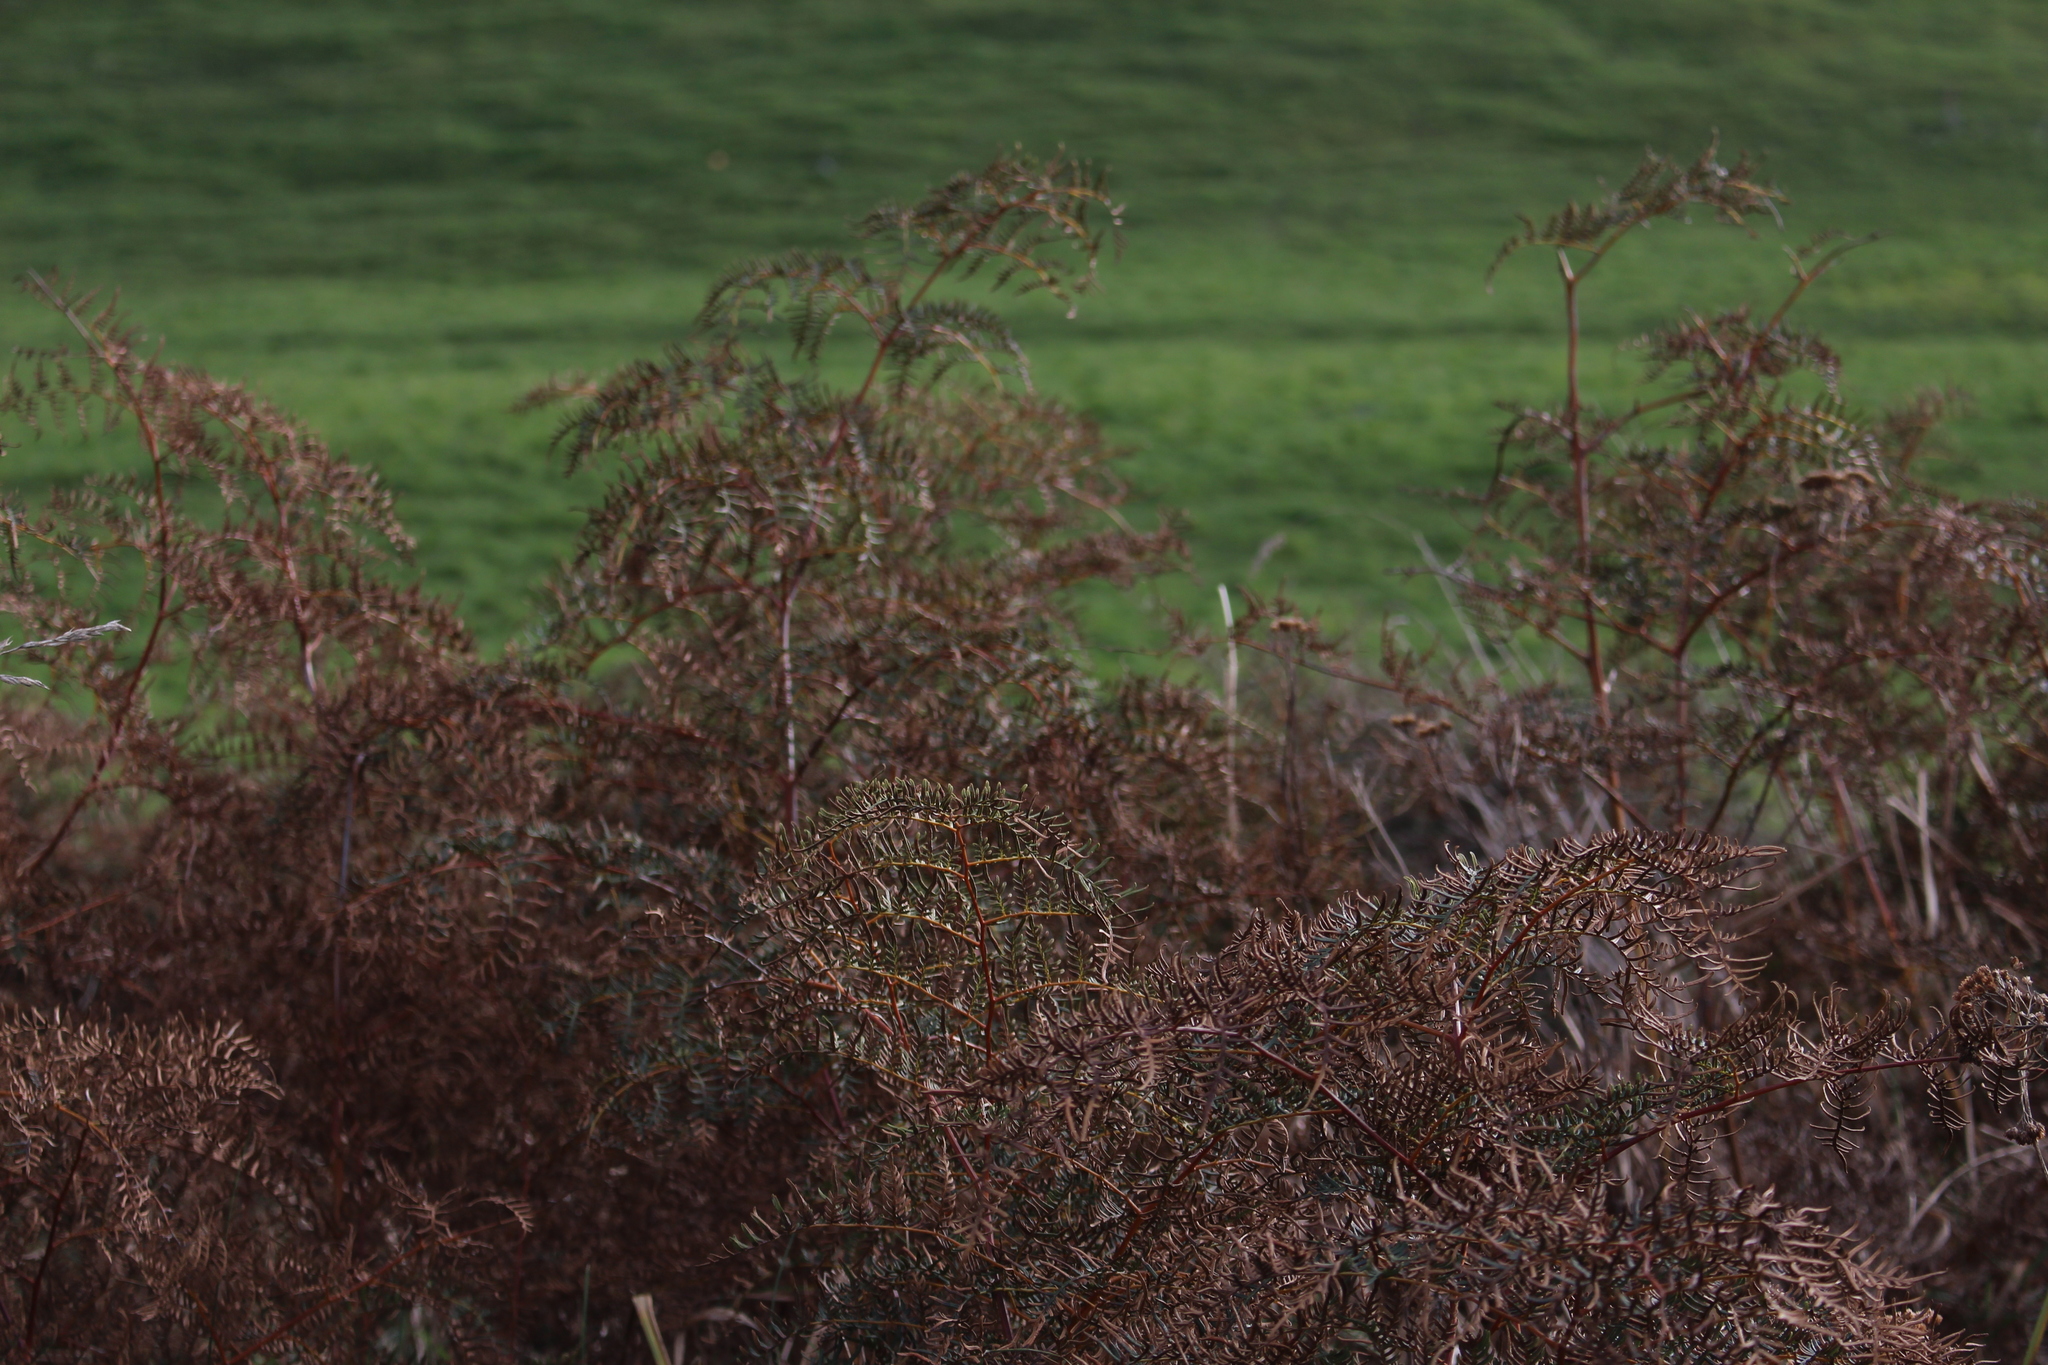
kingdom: Plantae
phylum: Tracheophyta
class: Polypodiopsida
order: Polypodiales
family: Dennstaedtiaceae
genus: Pteridium
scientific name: Pteridium esculentum
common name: Bracken fern
